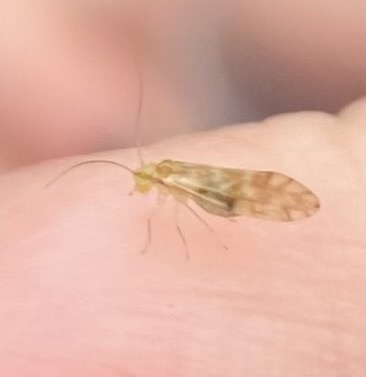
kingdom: Animalia
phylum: Arthropoda
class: Insecta
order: Psocodea
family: Paracaeciliidae
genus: Chilenocaecilius
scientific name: Chilenocaecilius ornatipennis
